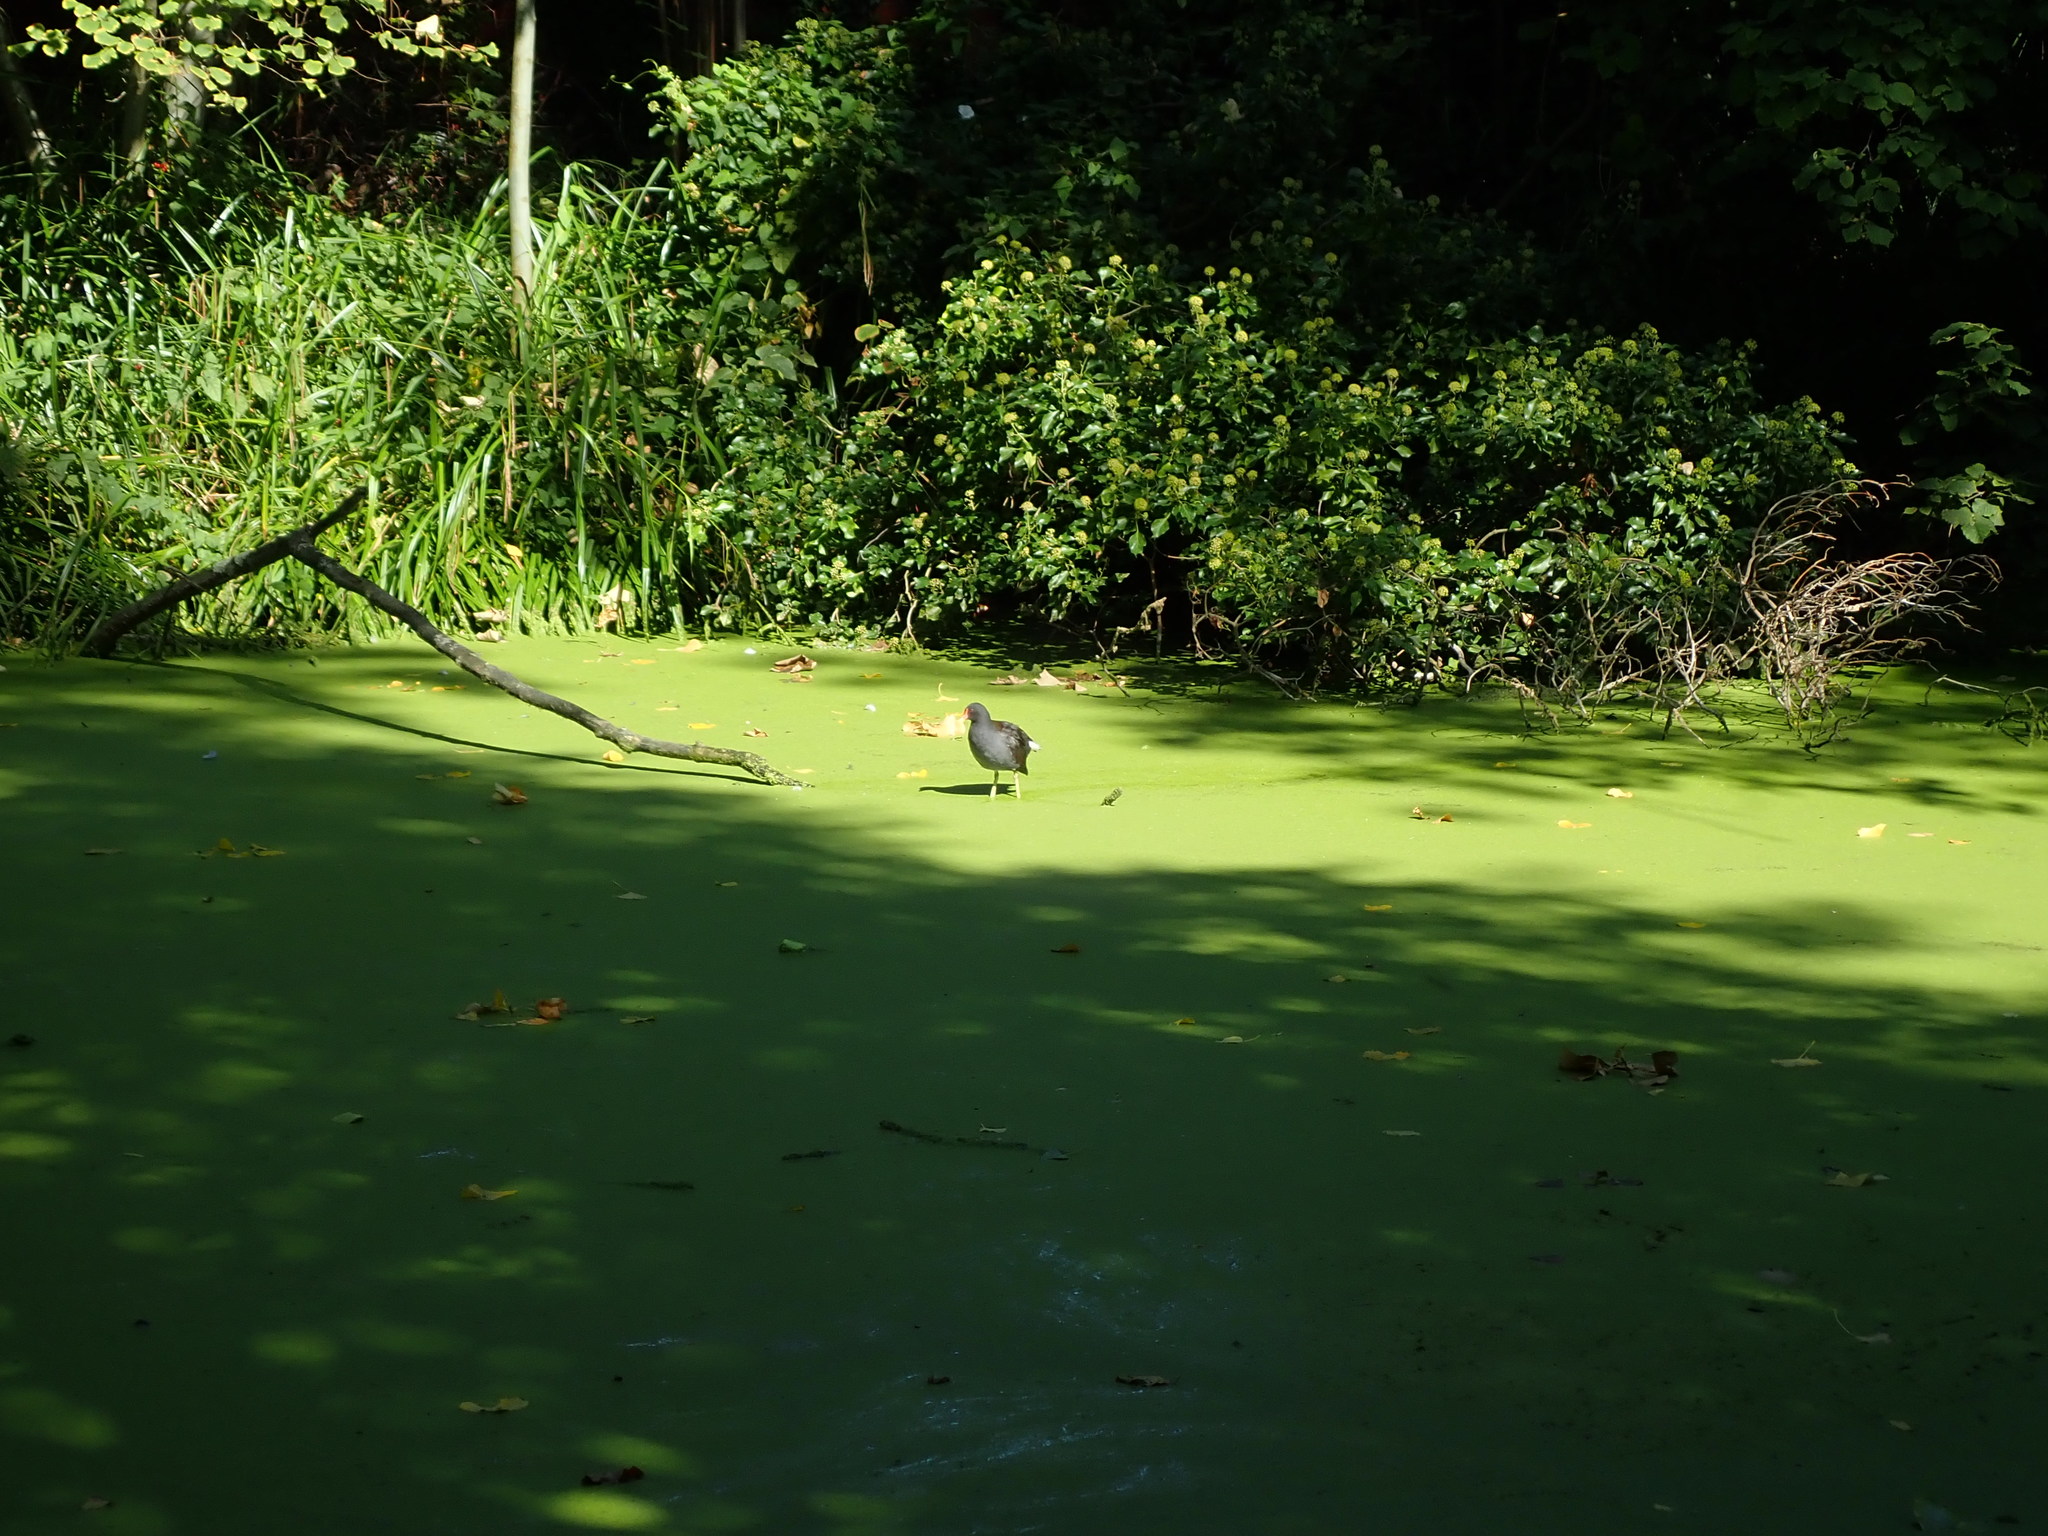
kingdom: Animalia
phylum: Chordata
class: Aves
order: Gruiformes
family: Rallidae
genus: Gallinula
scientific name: Gallinula chloropus
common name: Common moorhen
